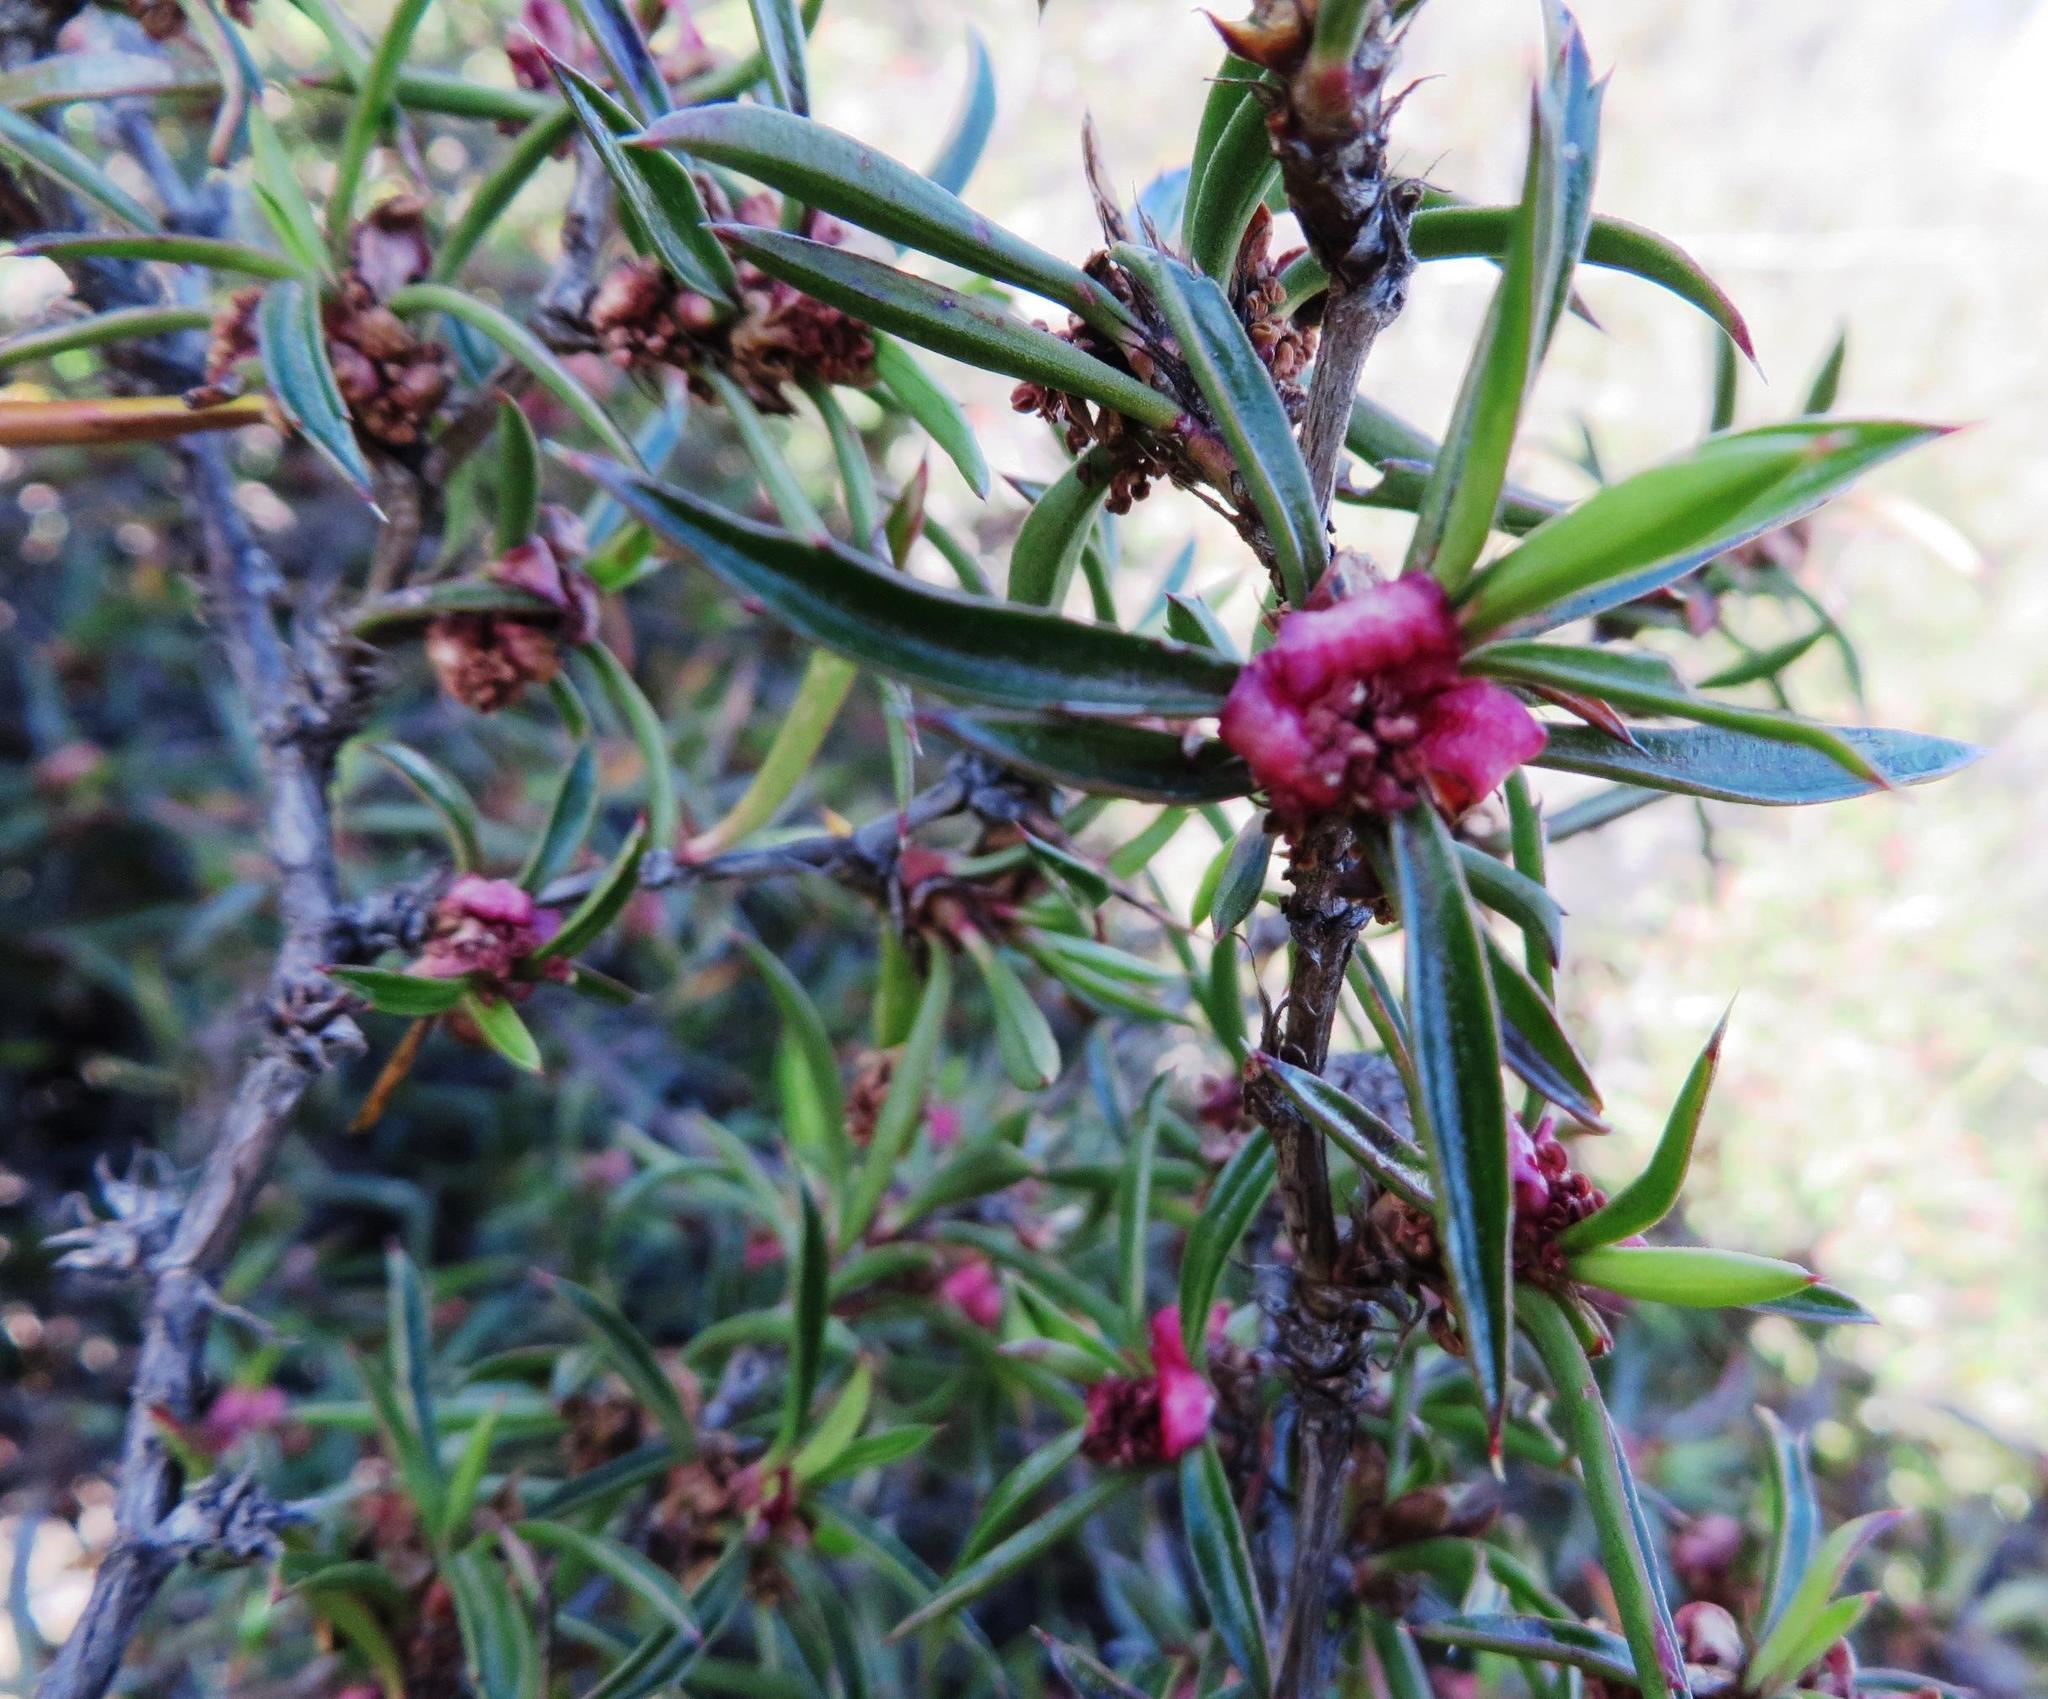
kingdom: Plantae
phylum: Tracheophyta
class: Magnoliopsida
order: Rosales
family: Rosaceae
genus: Cliffortia
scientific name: Cliffortia acutifolia
